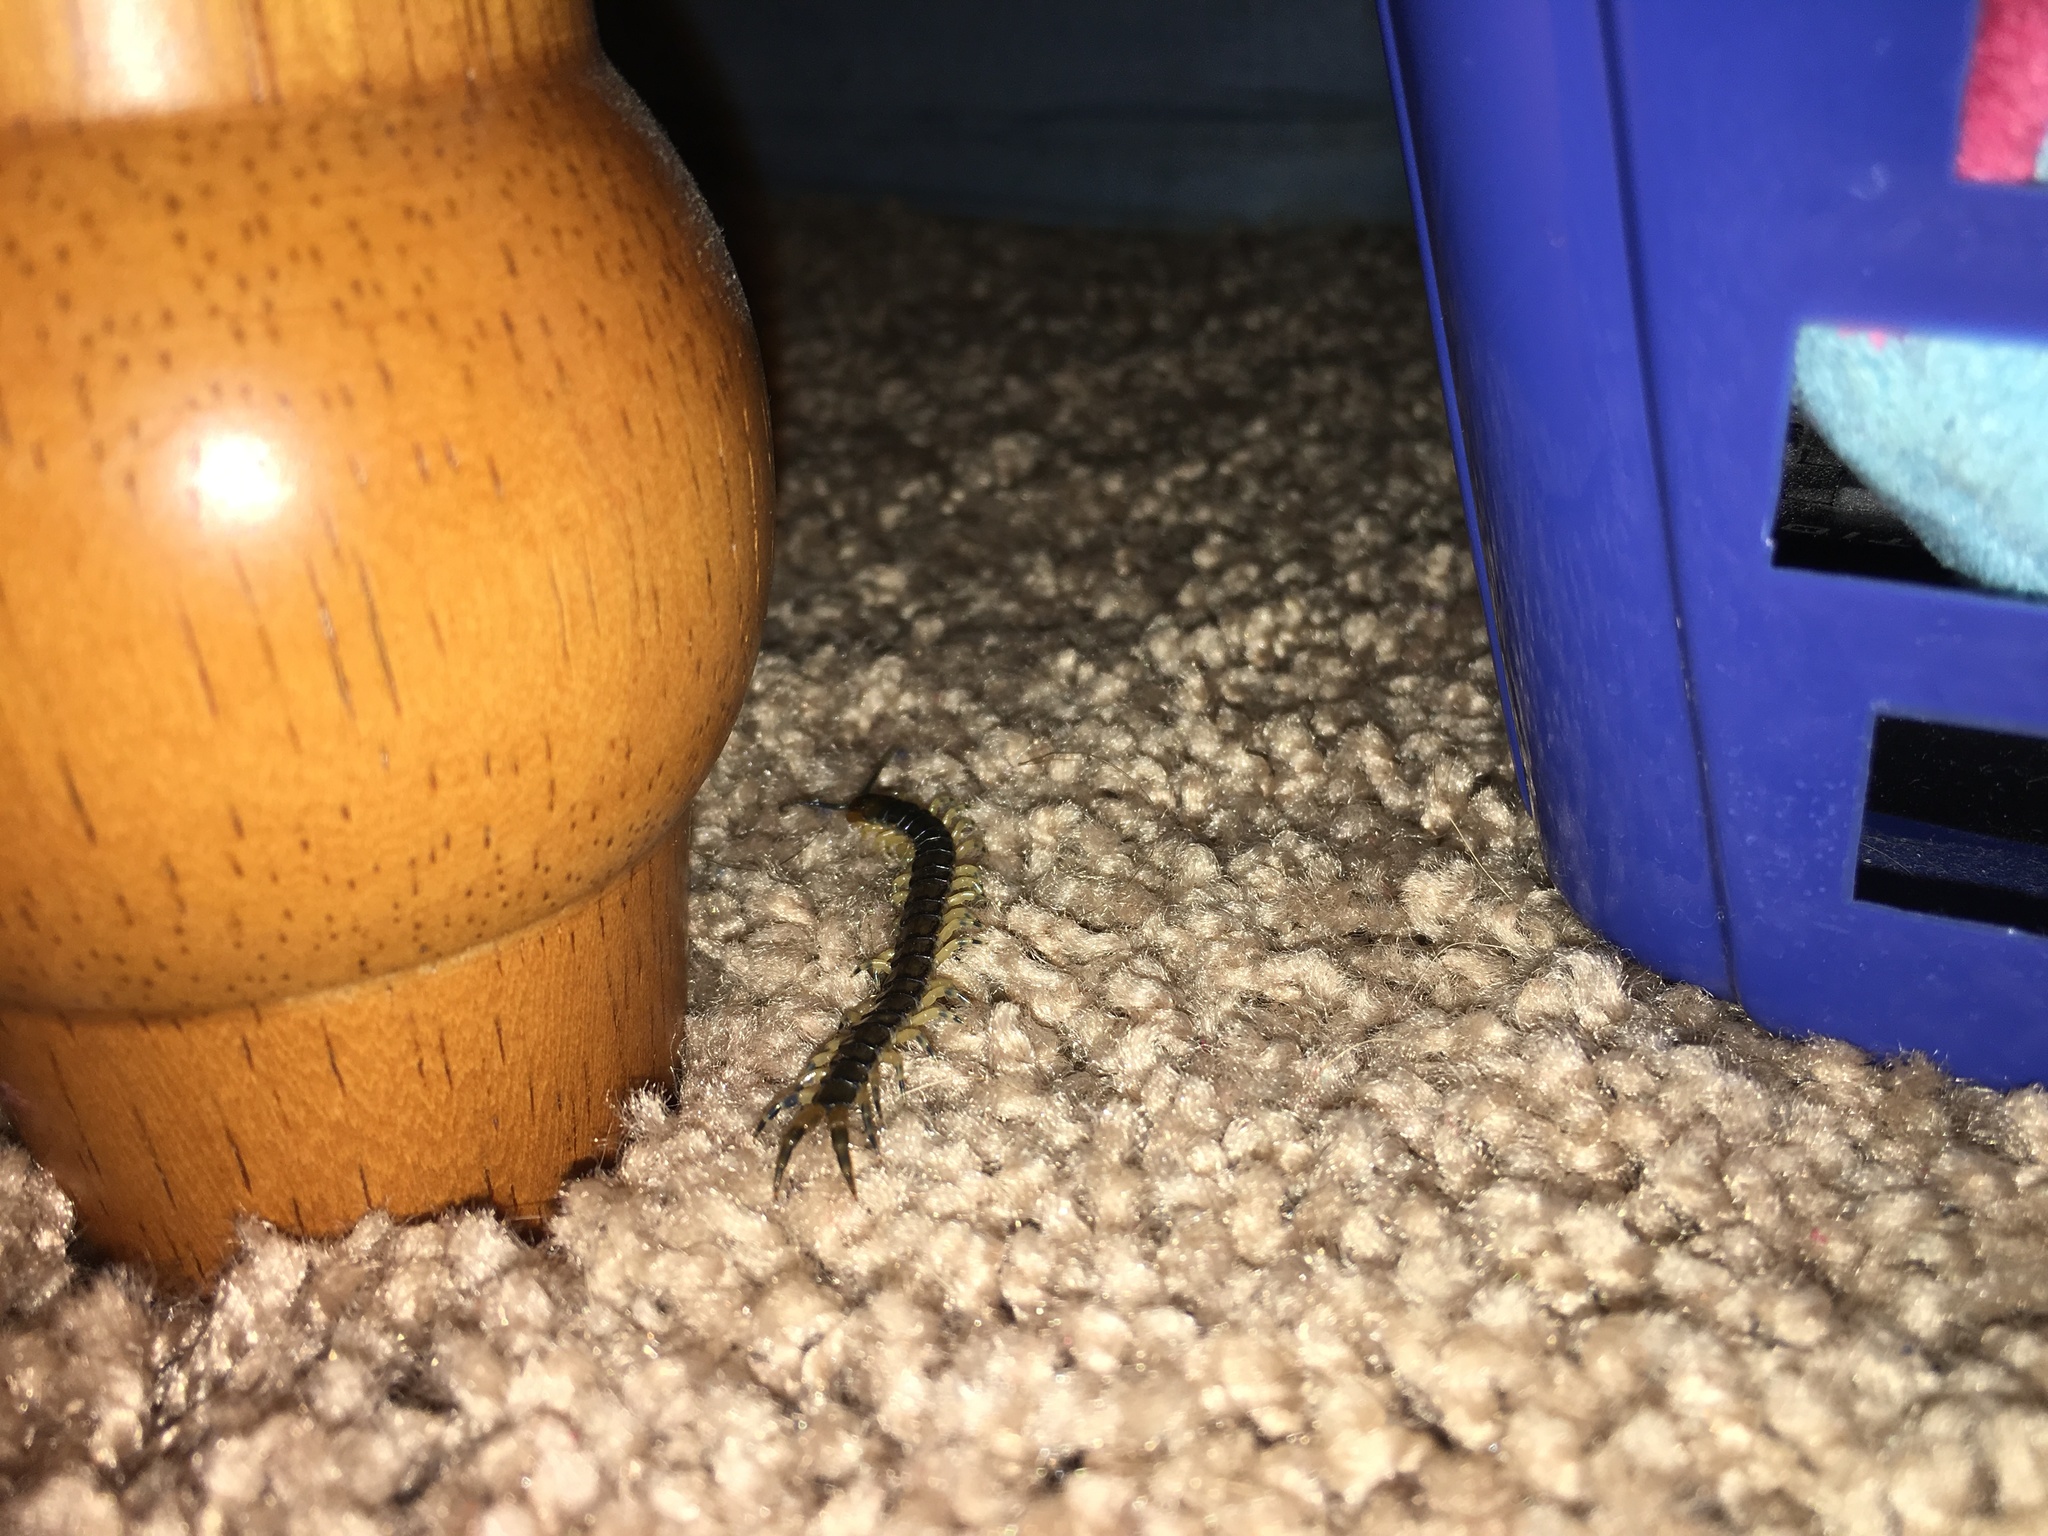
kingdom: Animalia
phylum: Arthropoda
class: Chilopoda
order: Scolopendromorpha
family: Scolopendridae
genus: Hemiscolopendra
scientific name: Hemiscolopendra marginata
